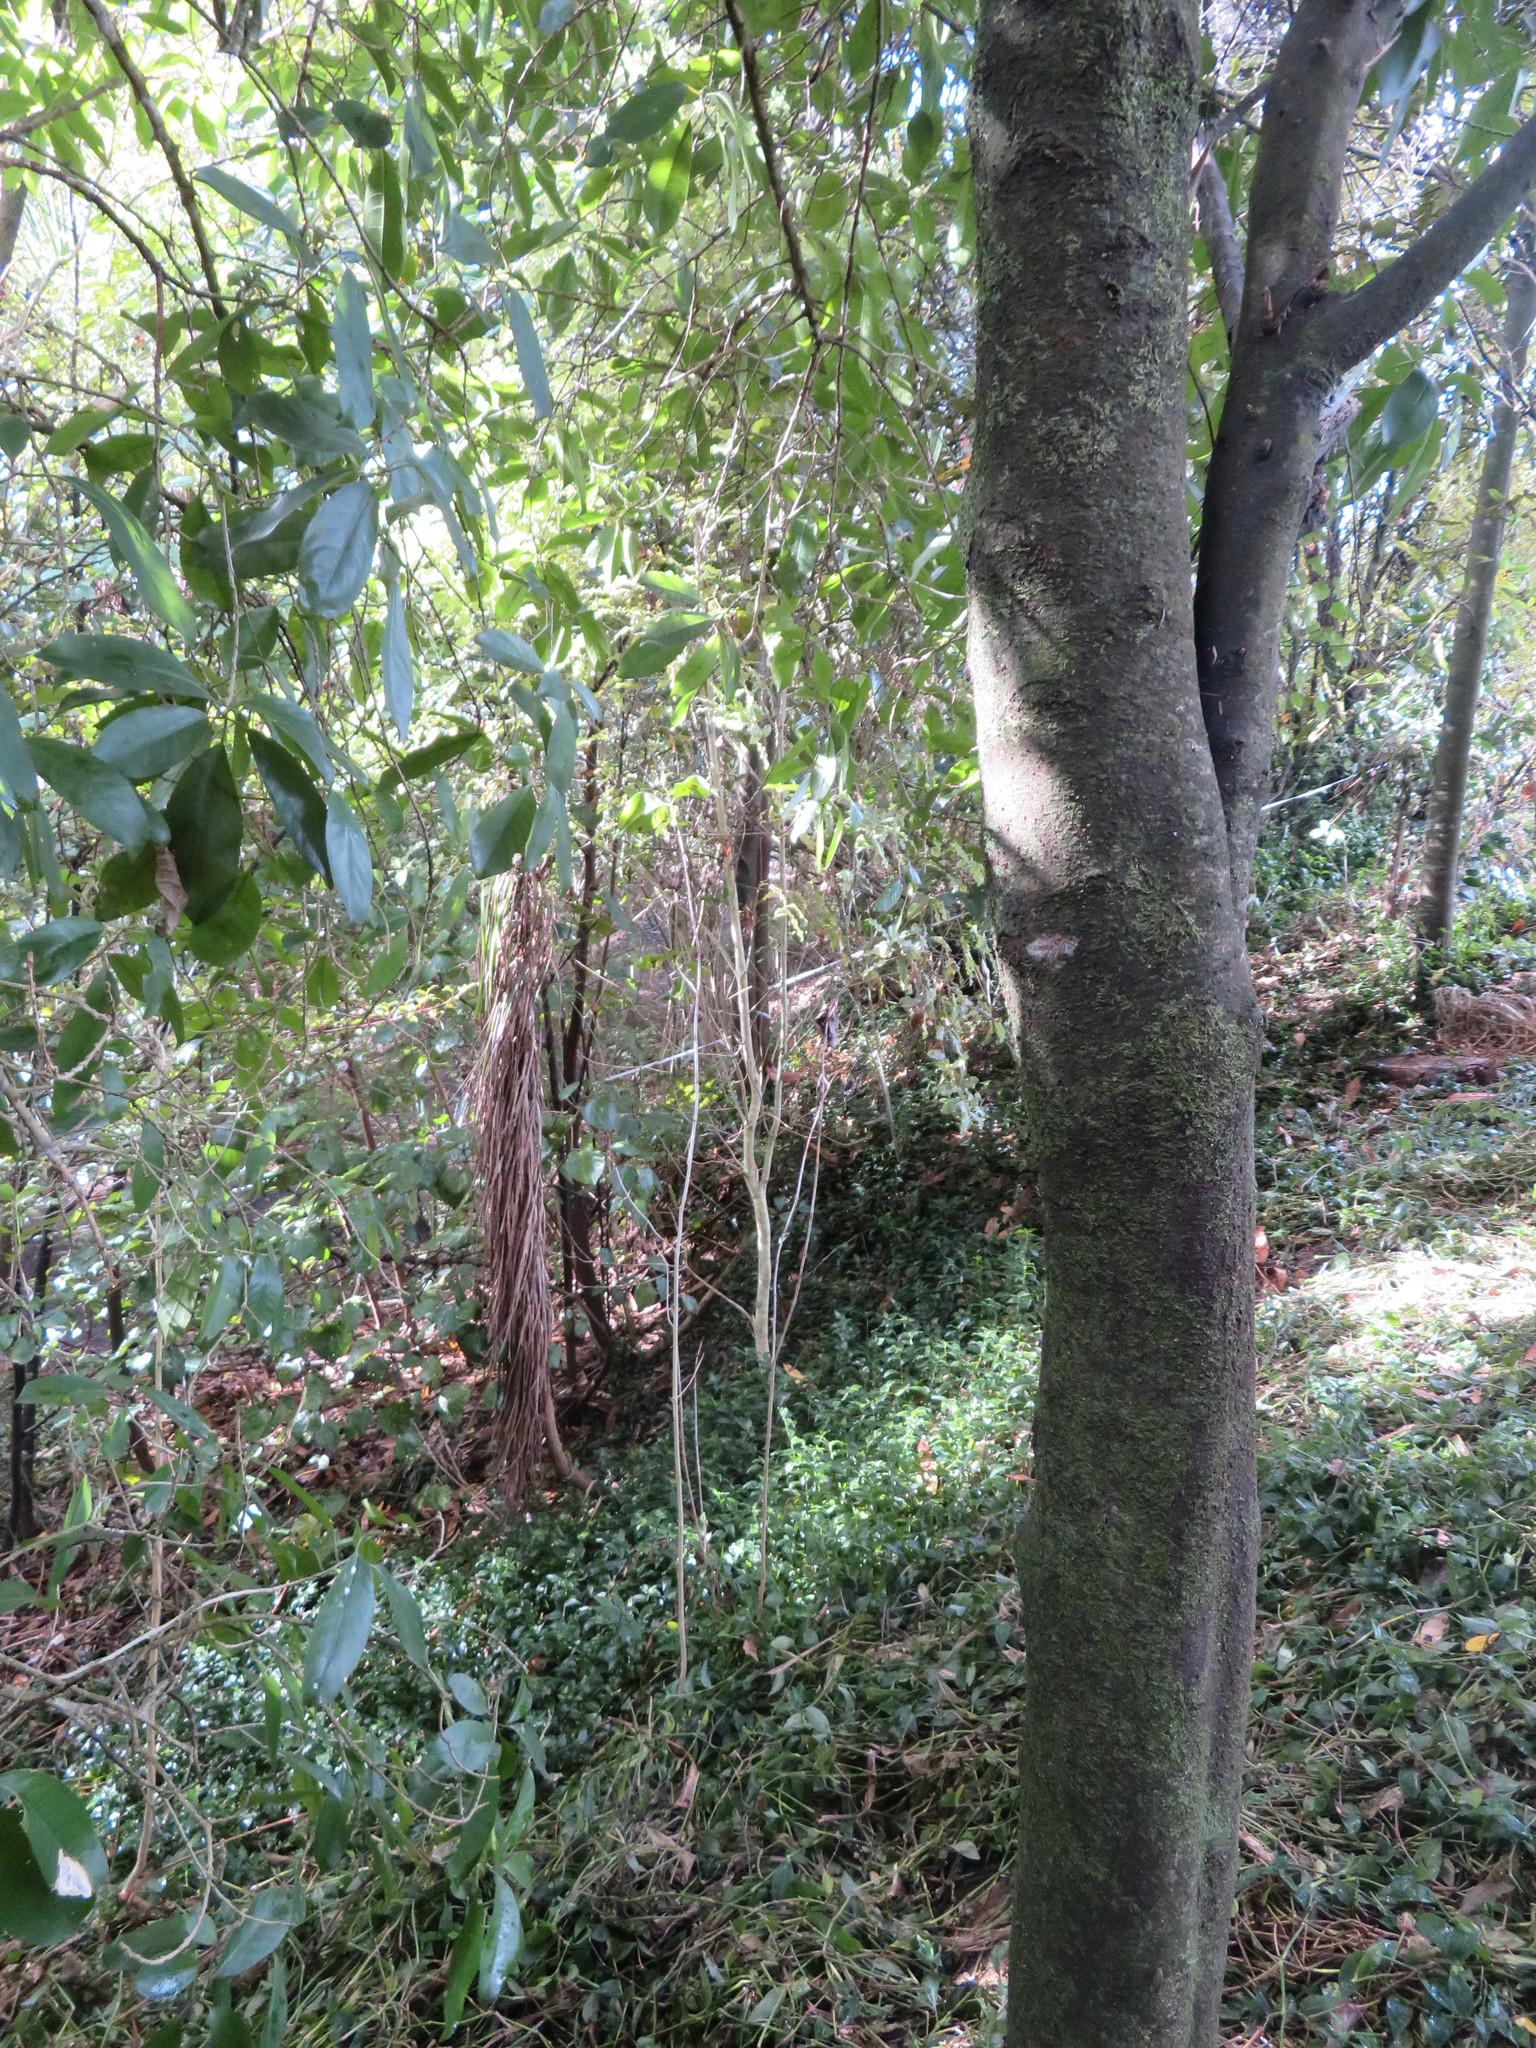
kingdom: Plantae
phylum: Tracheophyta
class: Liliopsida
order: Commelinales
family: Commelinaceae
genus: Tradescantia
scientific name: Tradescantia fluminensis
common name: Wandering-jew
